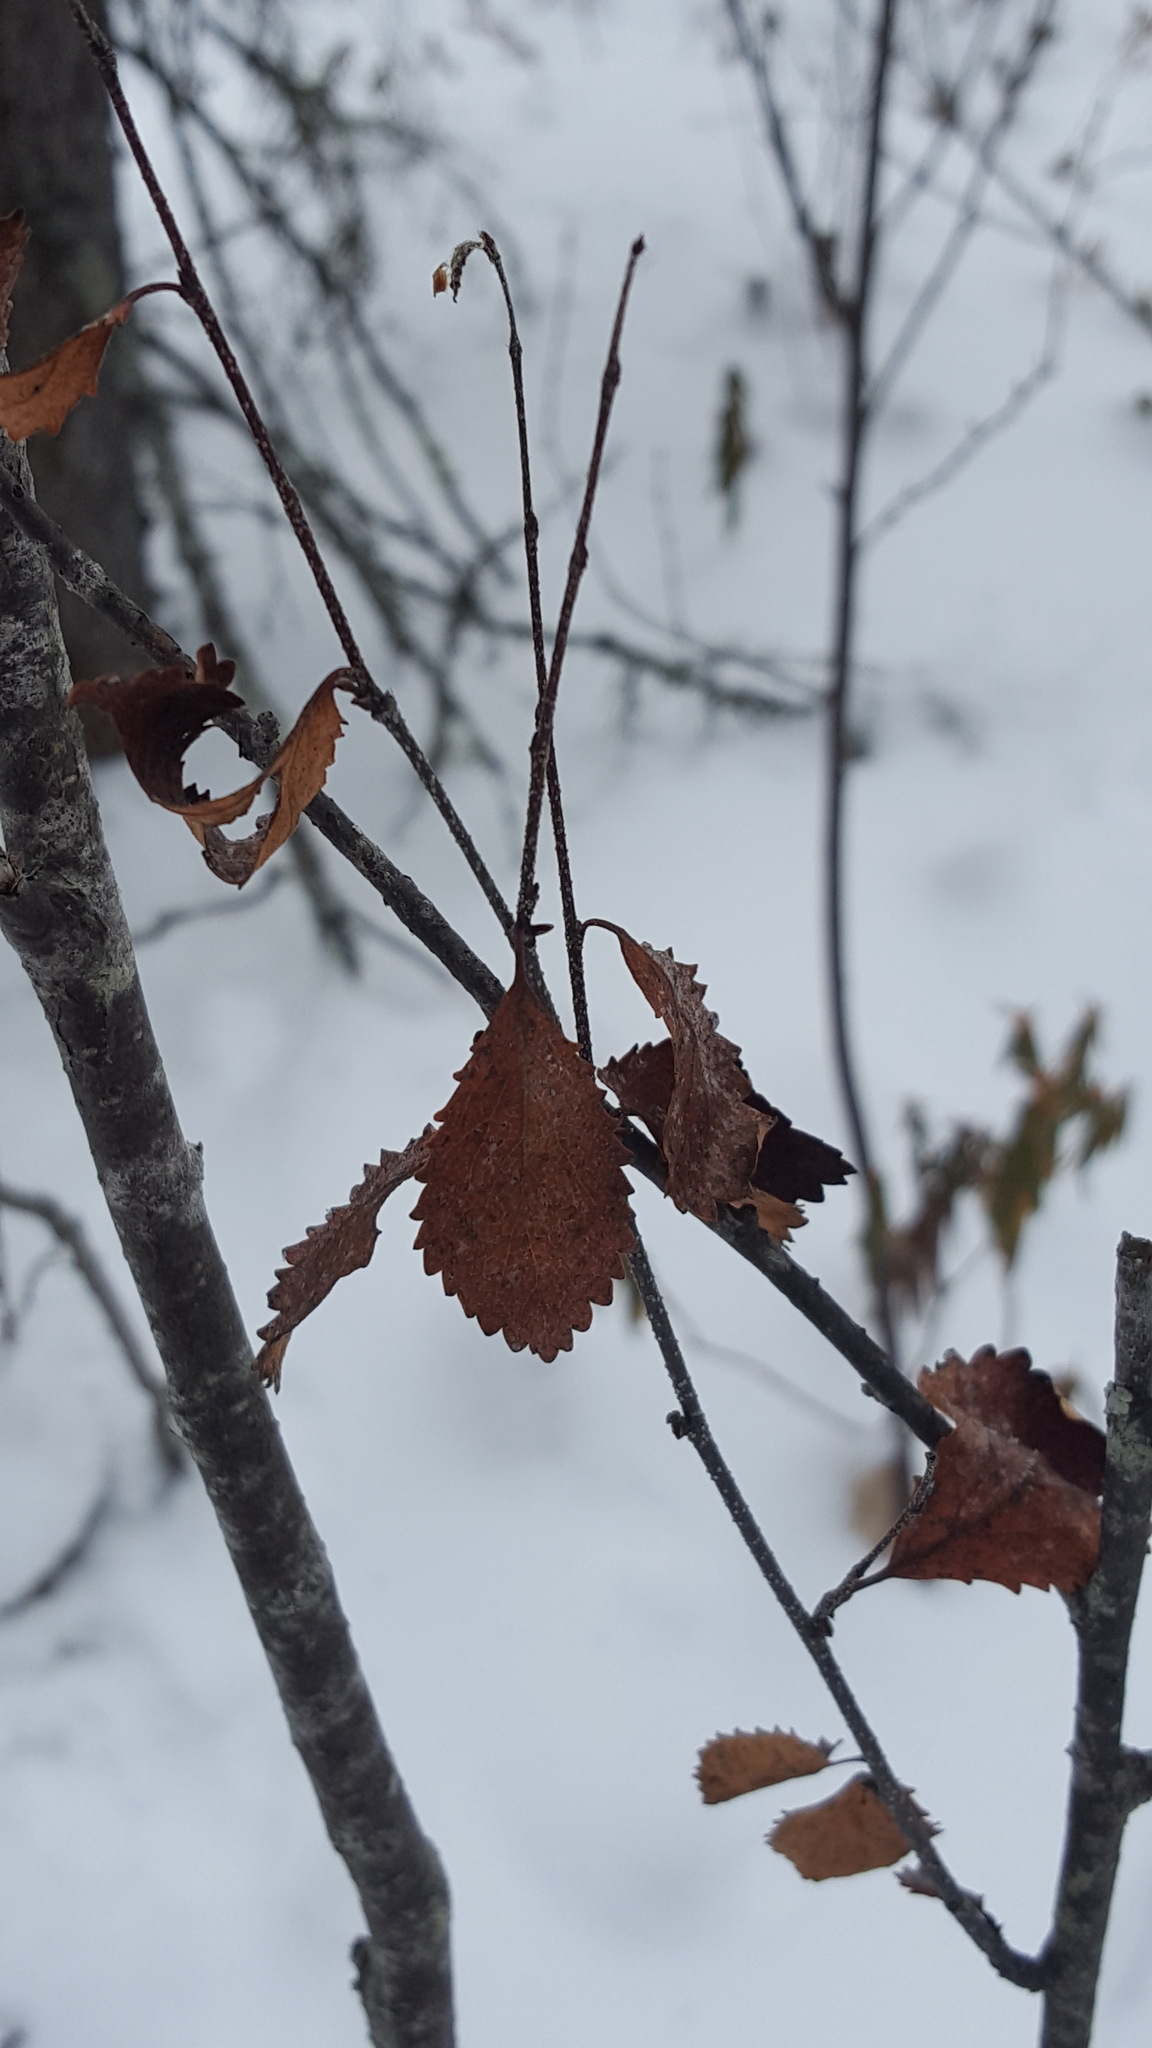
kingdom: Plantae
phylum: Tracheophyta
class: Magnoliopsida
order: Fagales
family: Betulaceae
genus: Betula
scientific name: Betula pumila
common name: Bog birch
